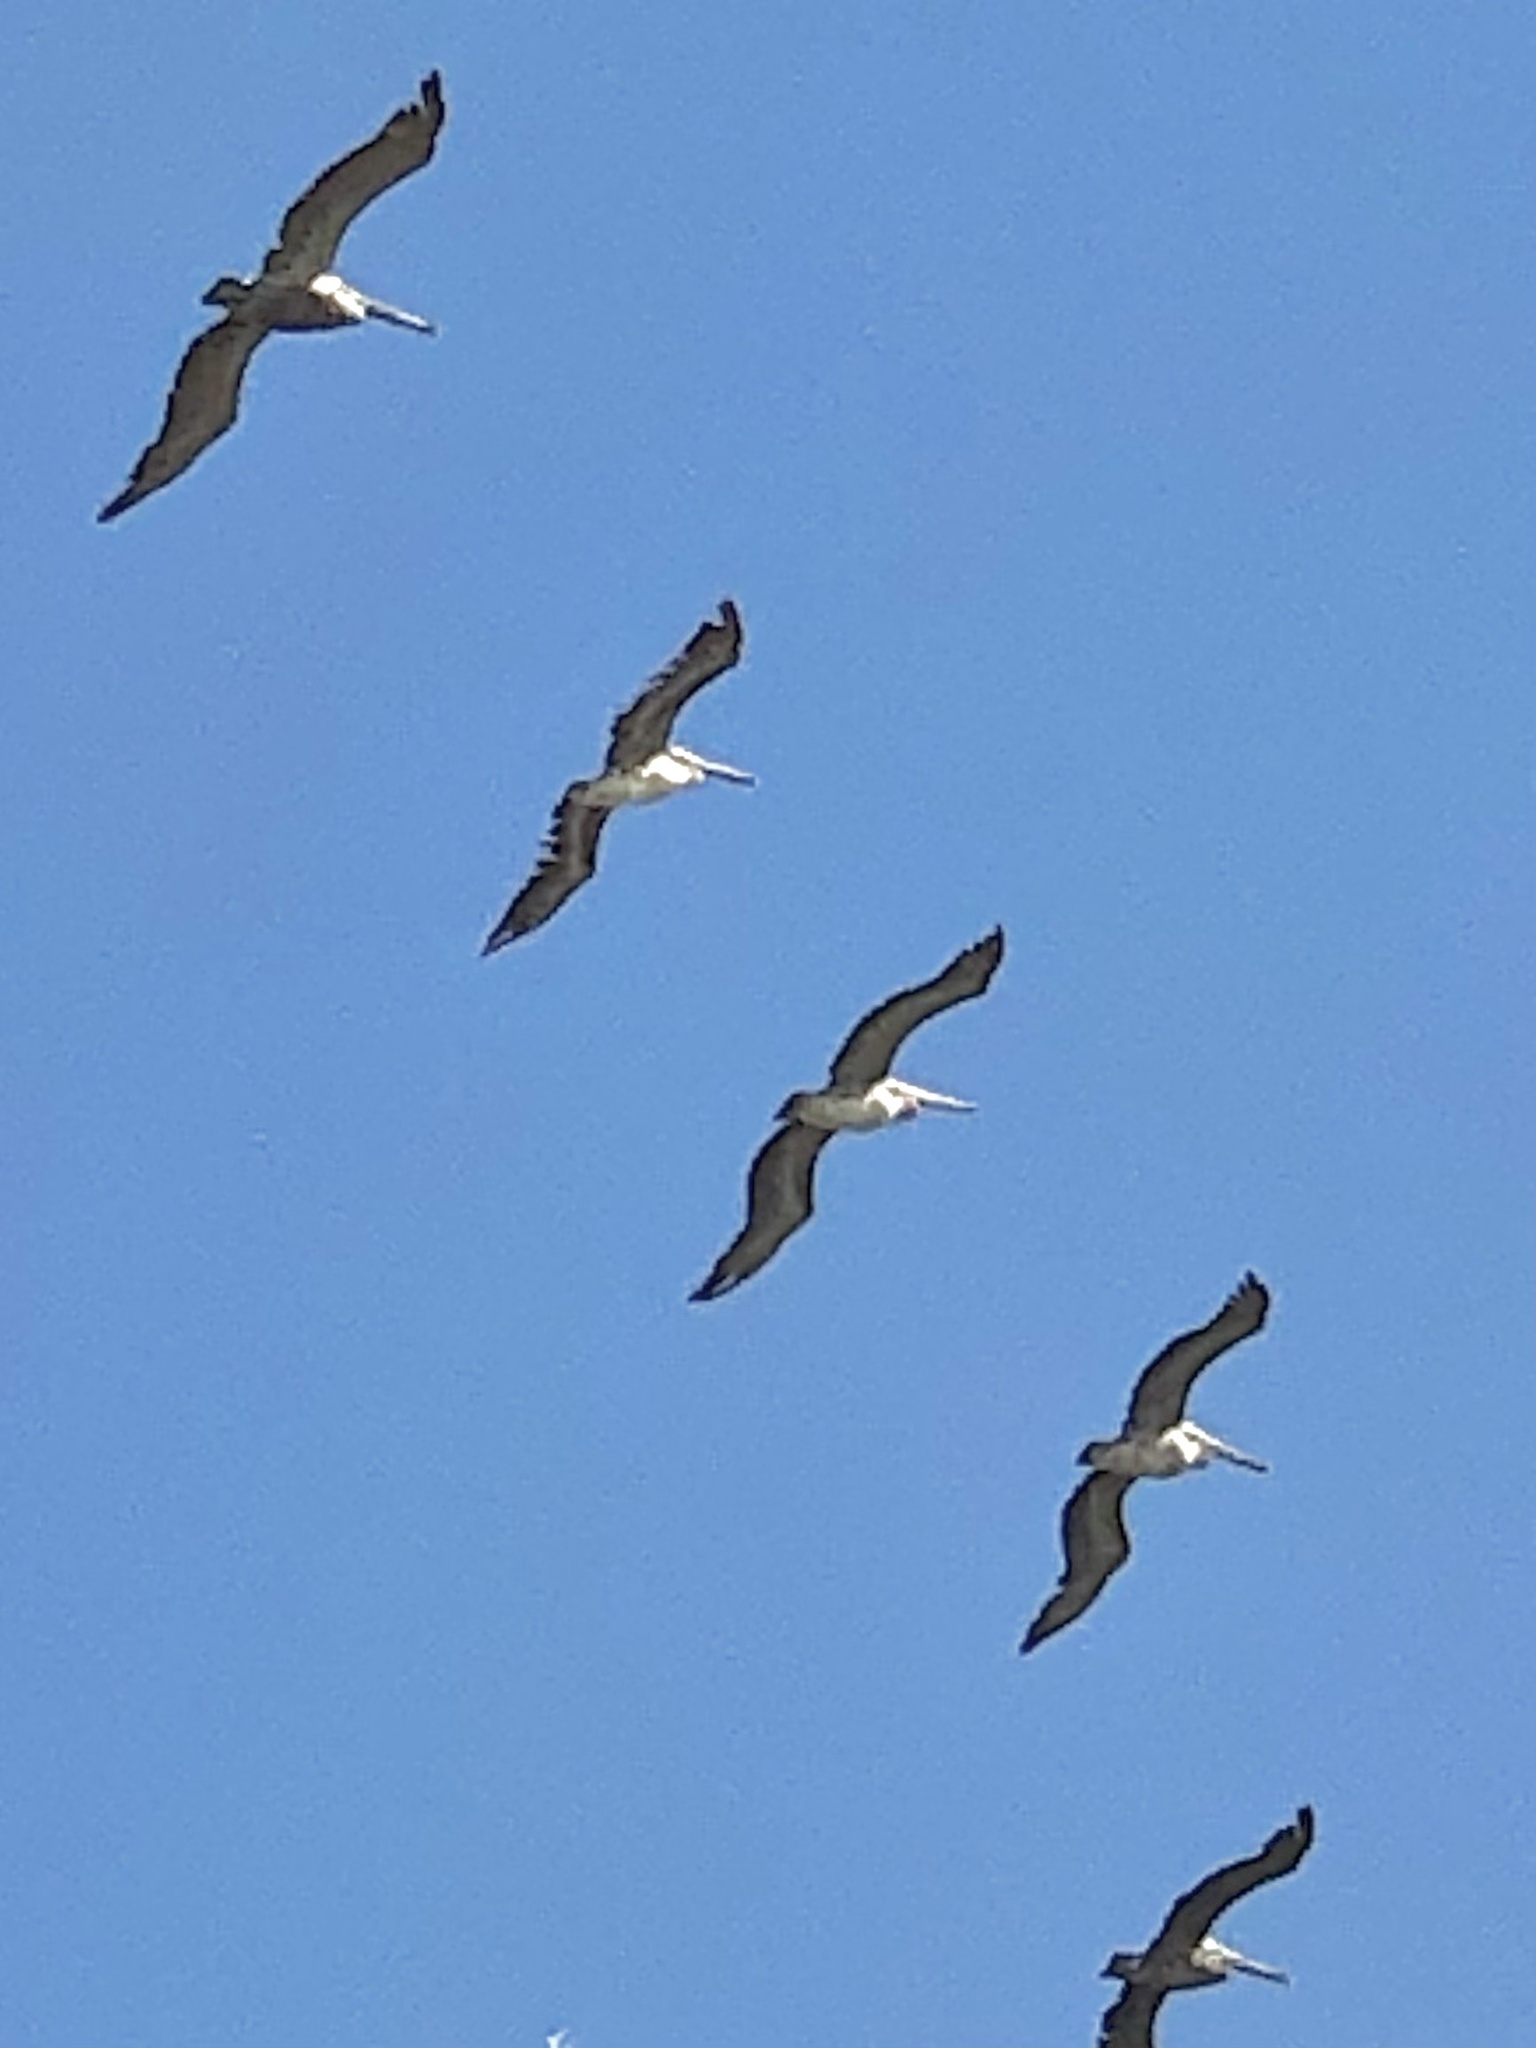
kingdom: Animalia
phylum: Chordata
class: Aves
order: Pelecaniformes
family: Pelecanidae
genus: Pelecanus
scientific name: Pelecanus occidentalis
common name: Brown pelican
